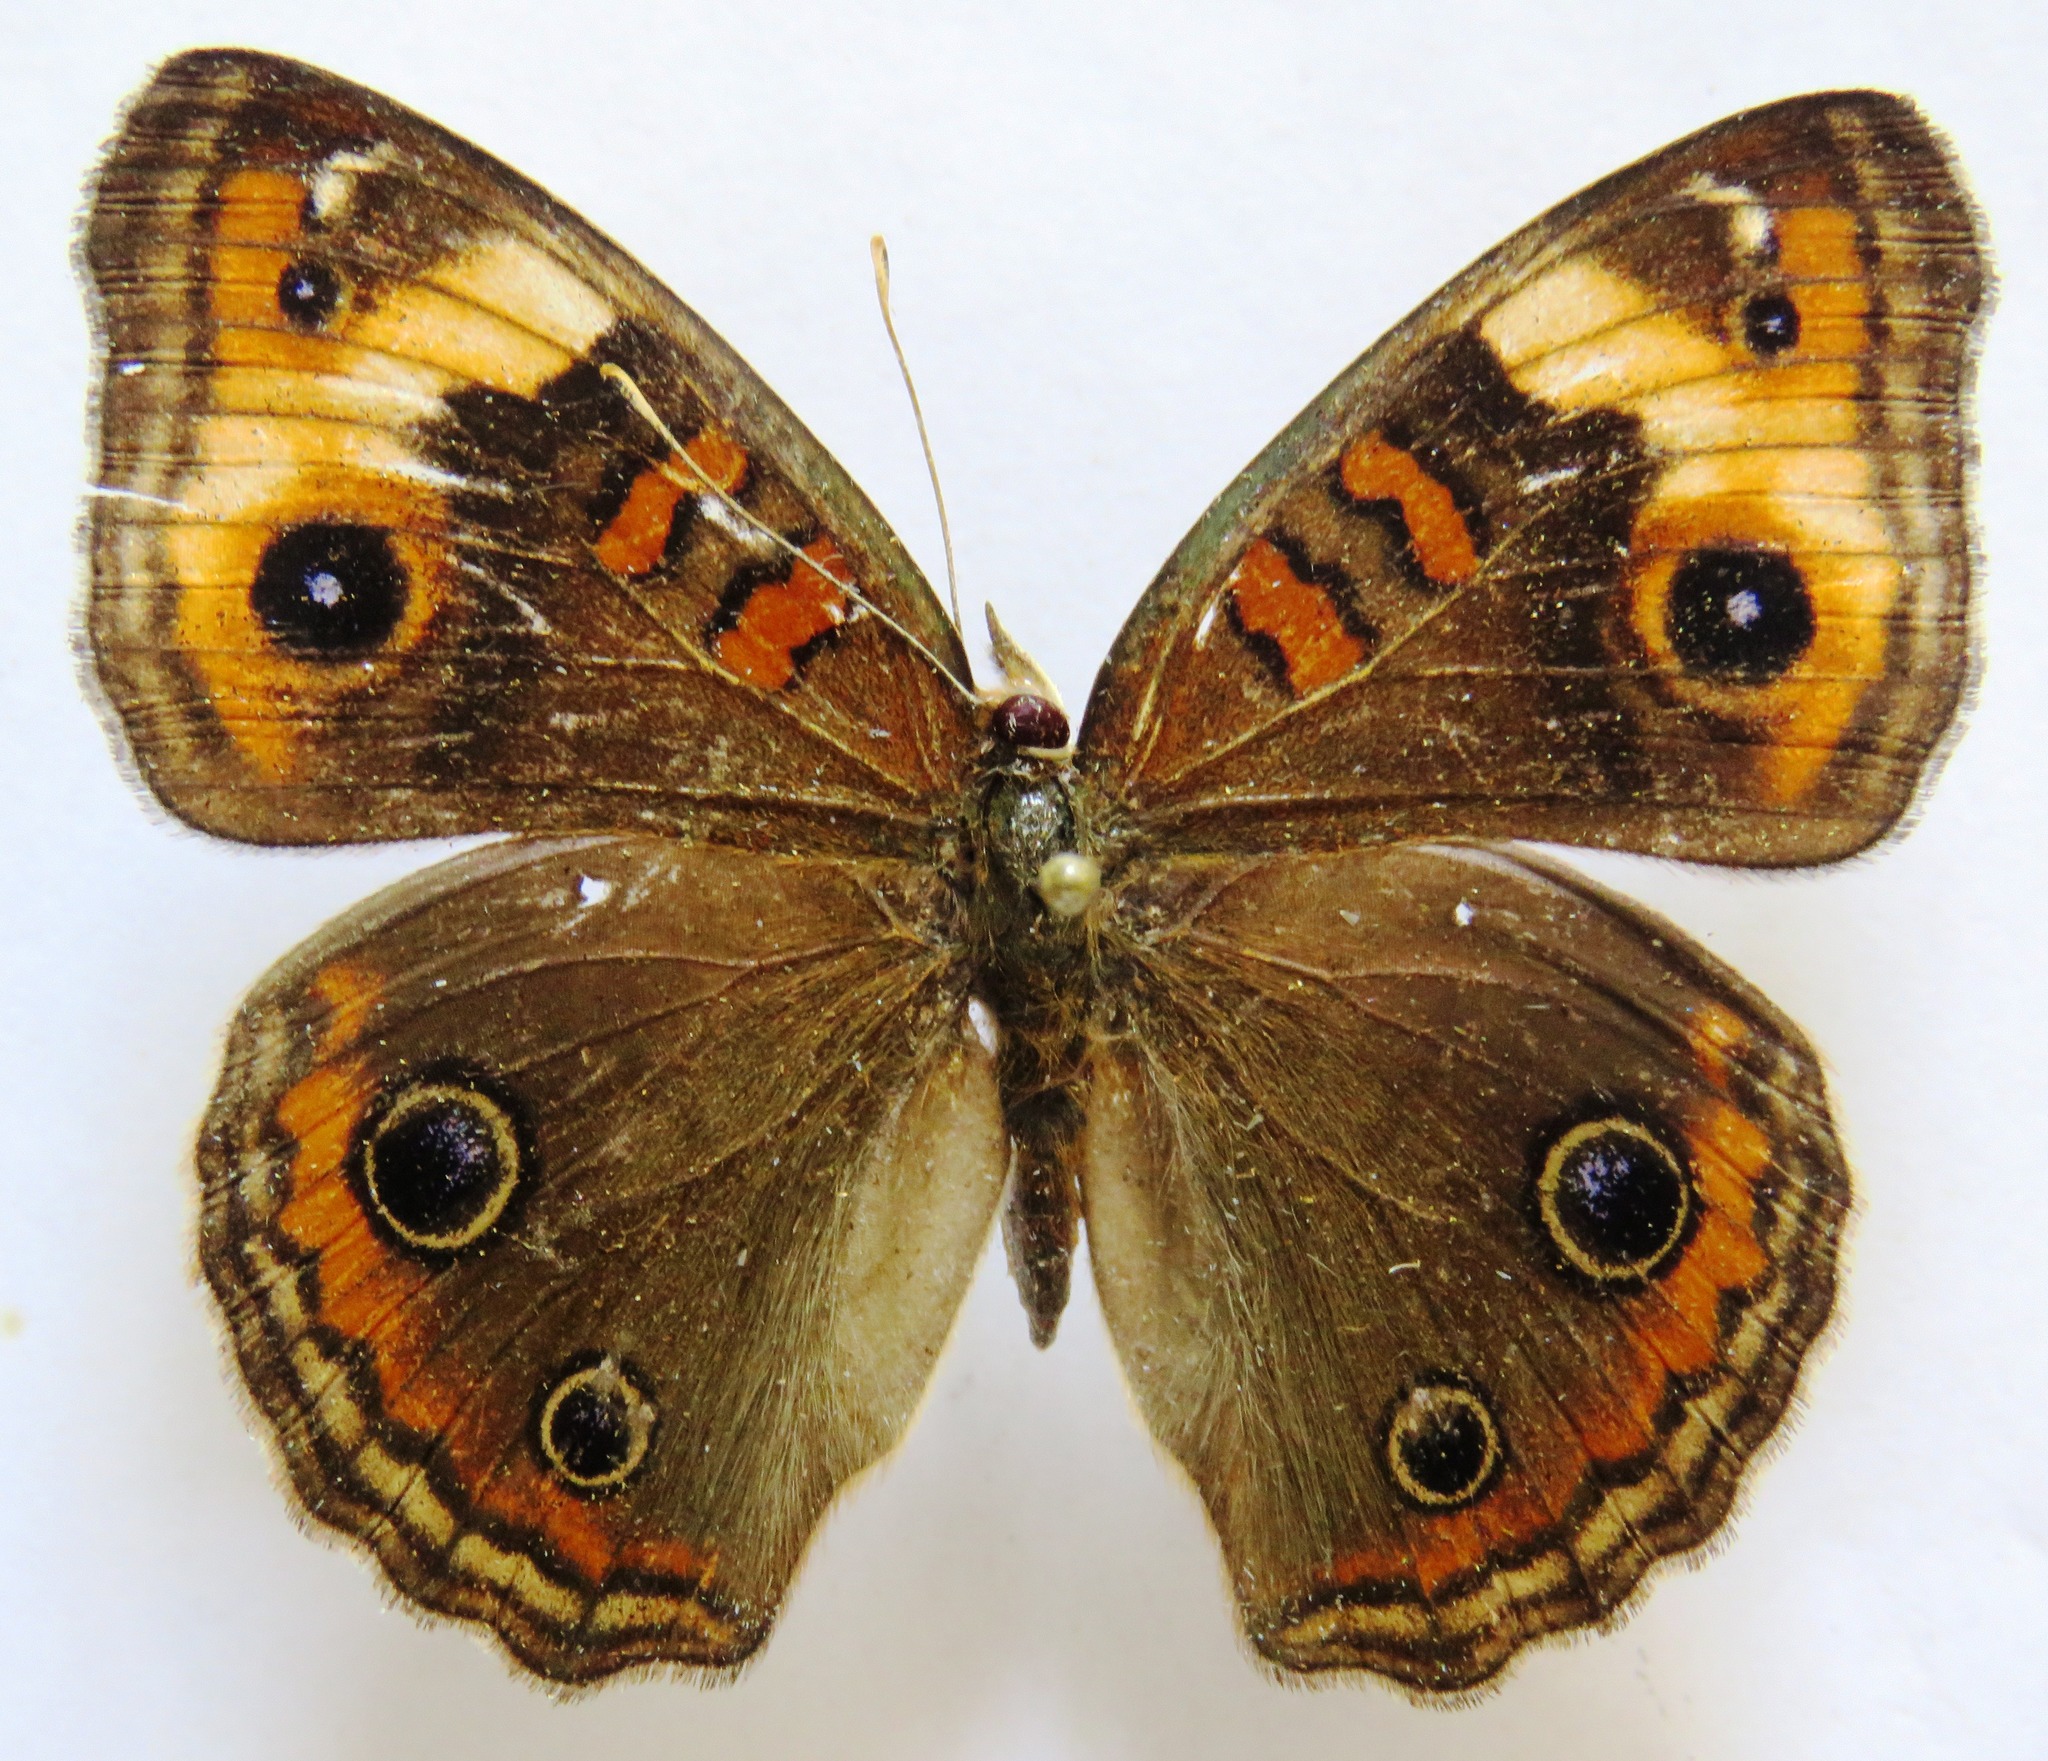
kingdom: Animalia
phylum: Arthropoda
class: Insecta
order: Lepidoptera
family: Nymphalidae
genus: Junonia
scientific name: Junonia lavinia
